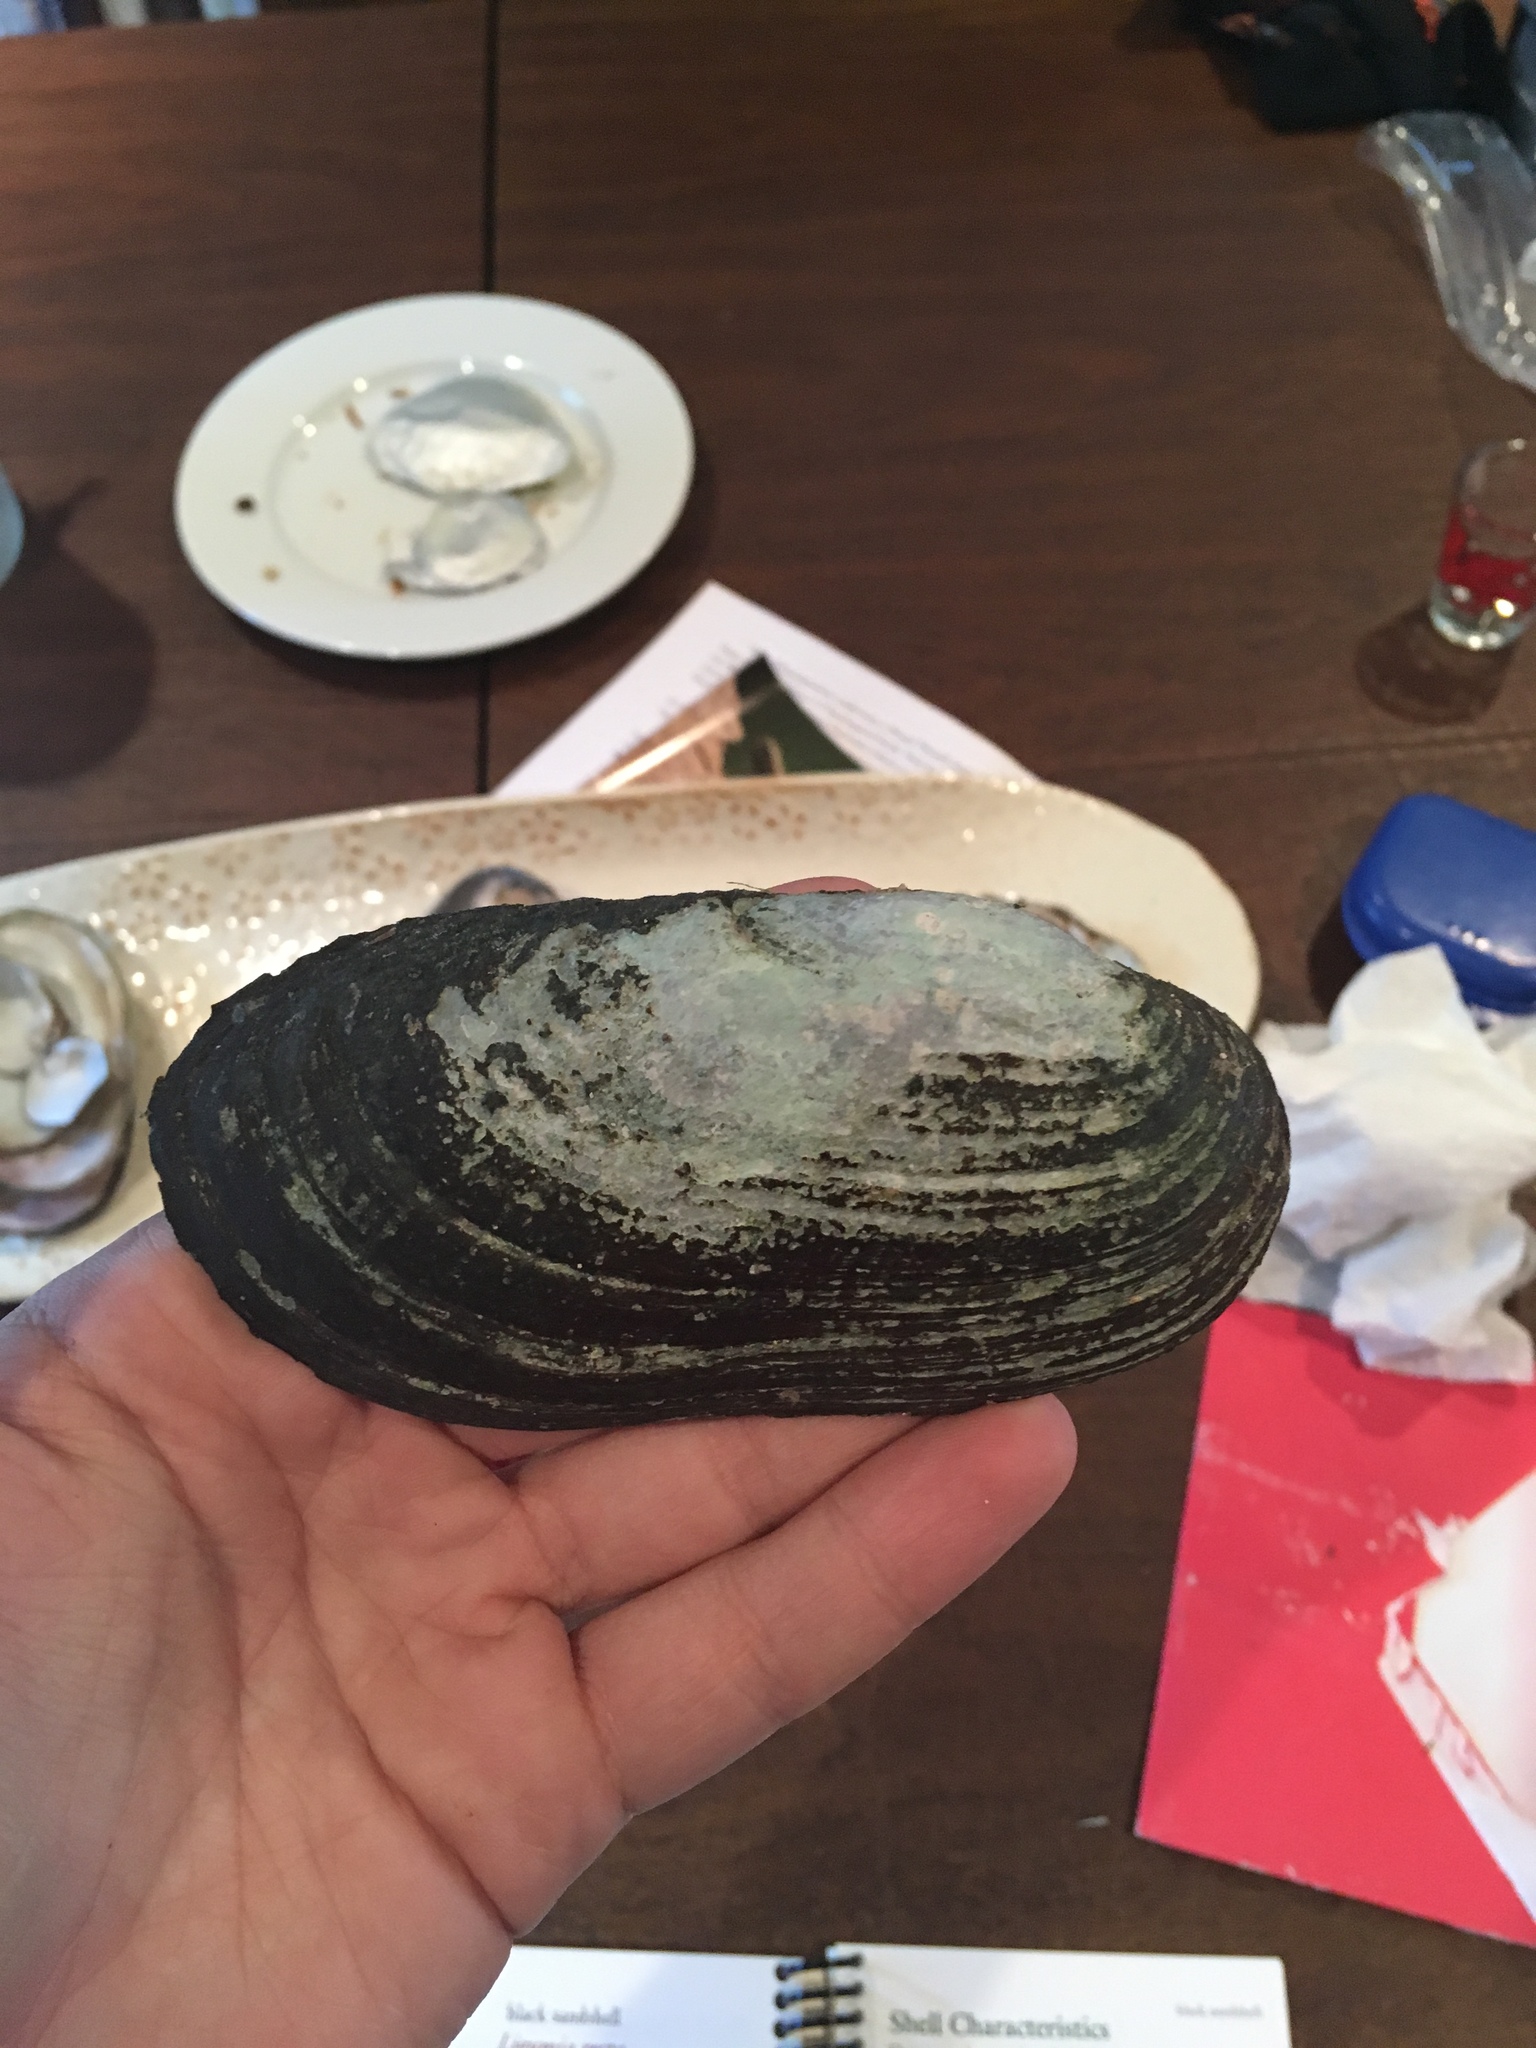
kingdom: Animalia
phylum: Mollusca
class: Bivalvia
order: Unionida
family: Unionidae
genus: Ligumia
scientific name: Ligumia recta
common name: Black sandshell
